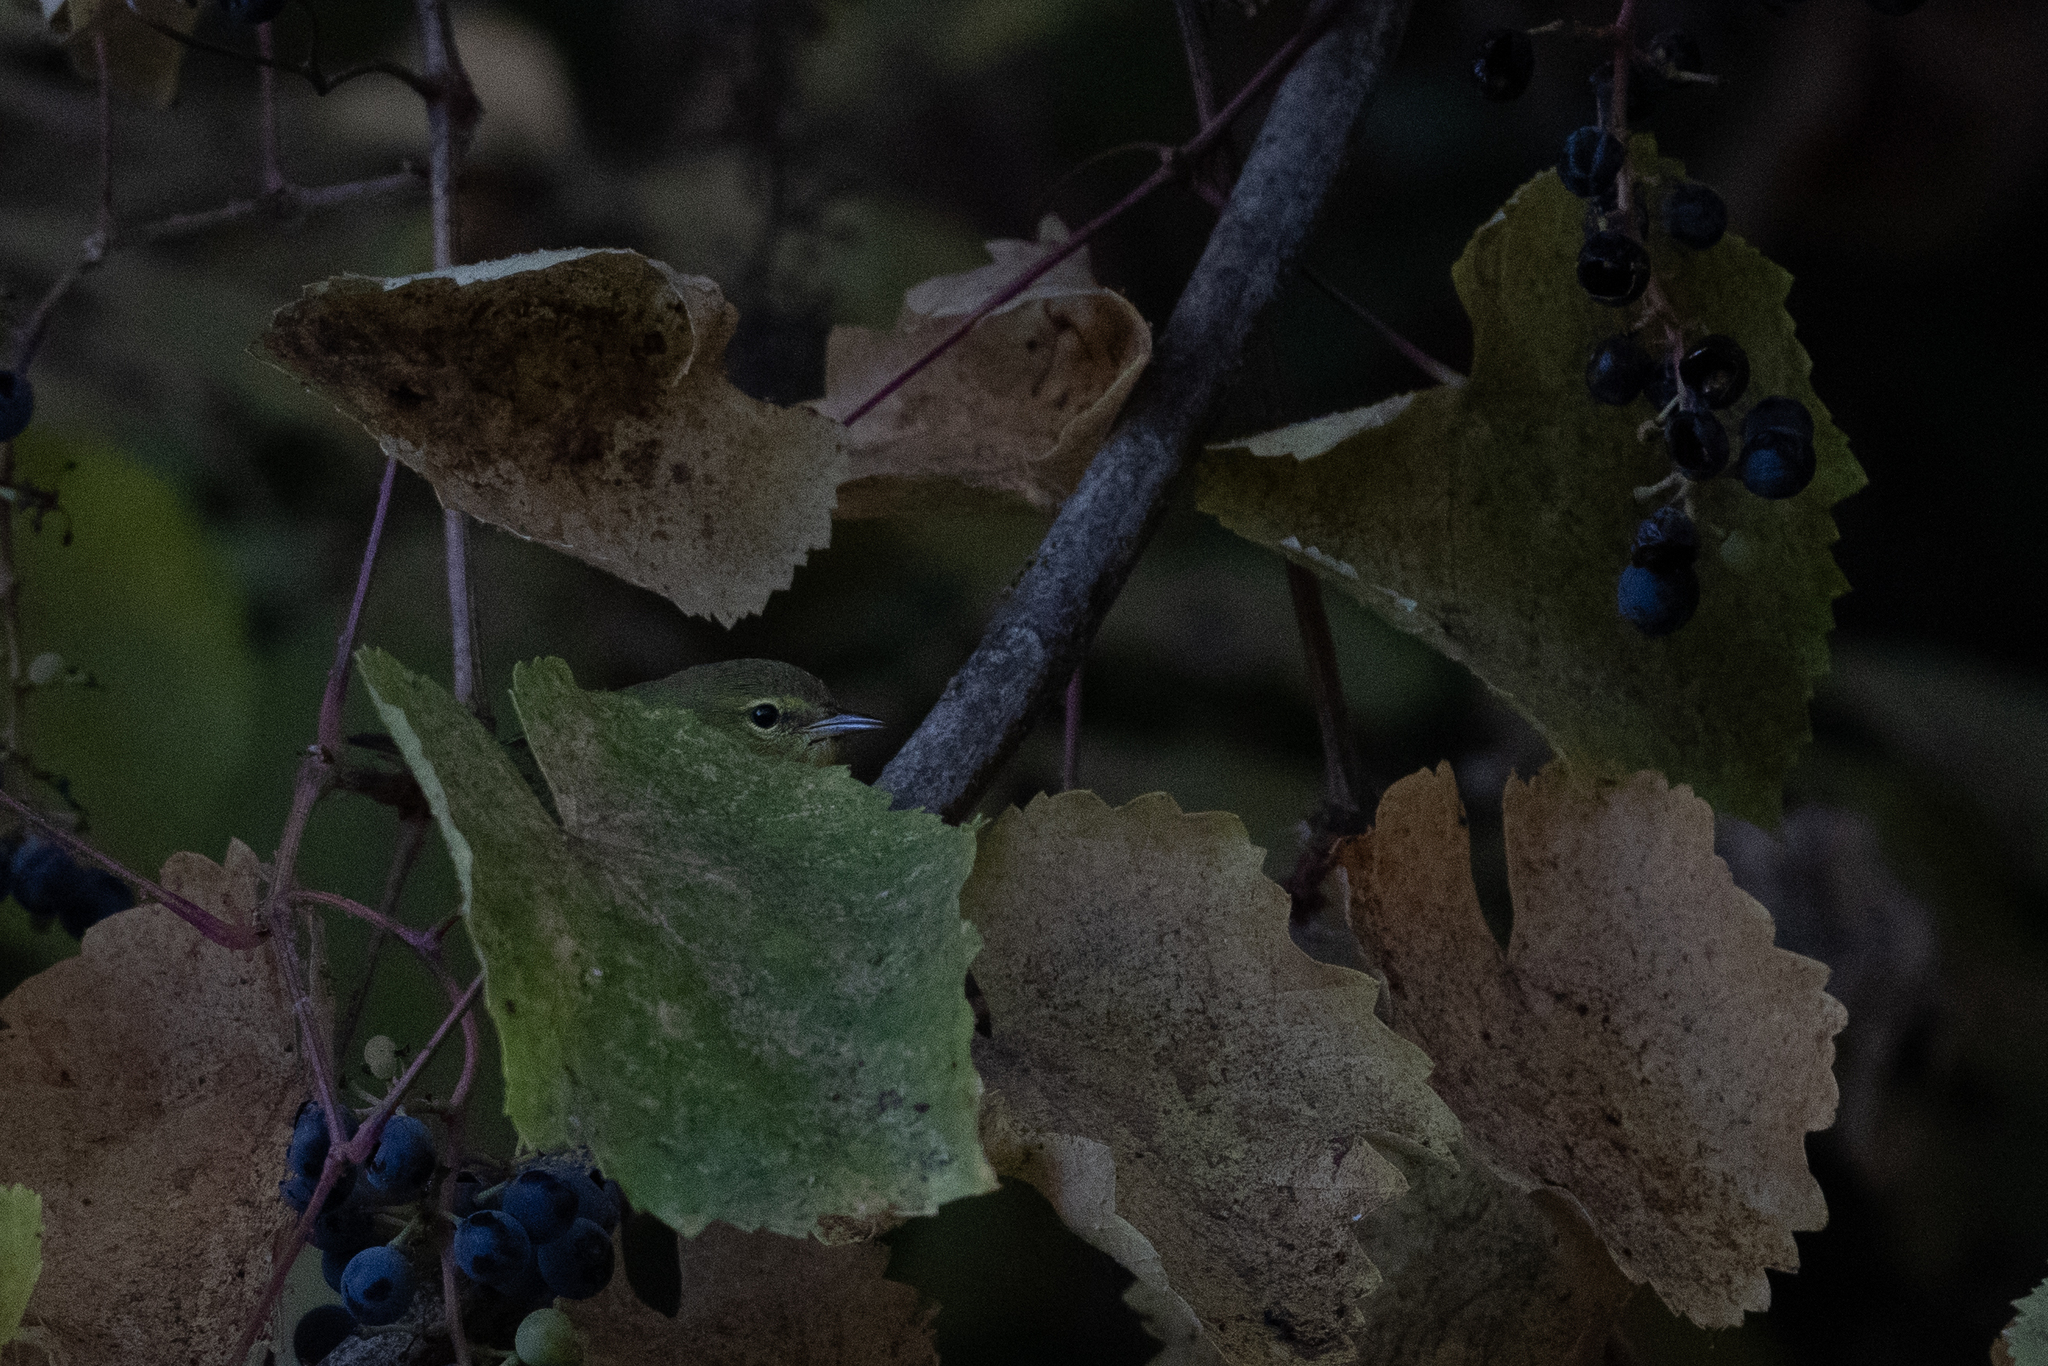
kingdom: Animalia
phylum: Chordata
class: Aves
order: Passeriformes
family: Parulidae
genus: Leiothlypis
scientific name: Leiothlypis celata
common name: Orange-crowned warbler
